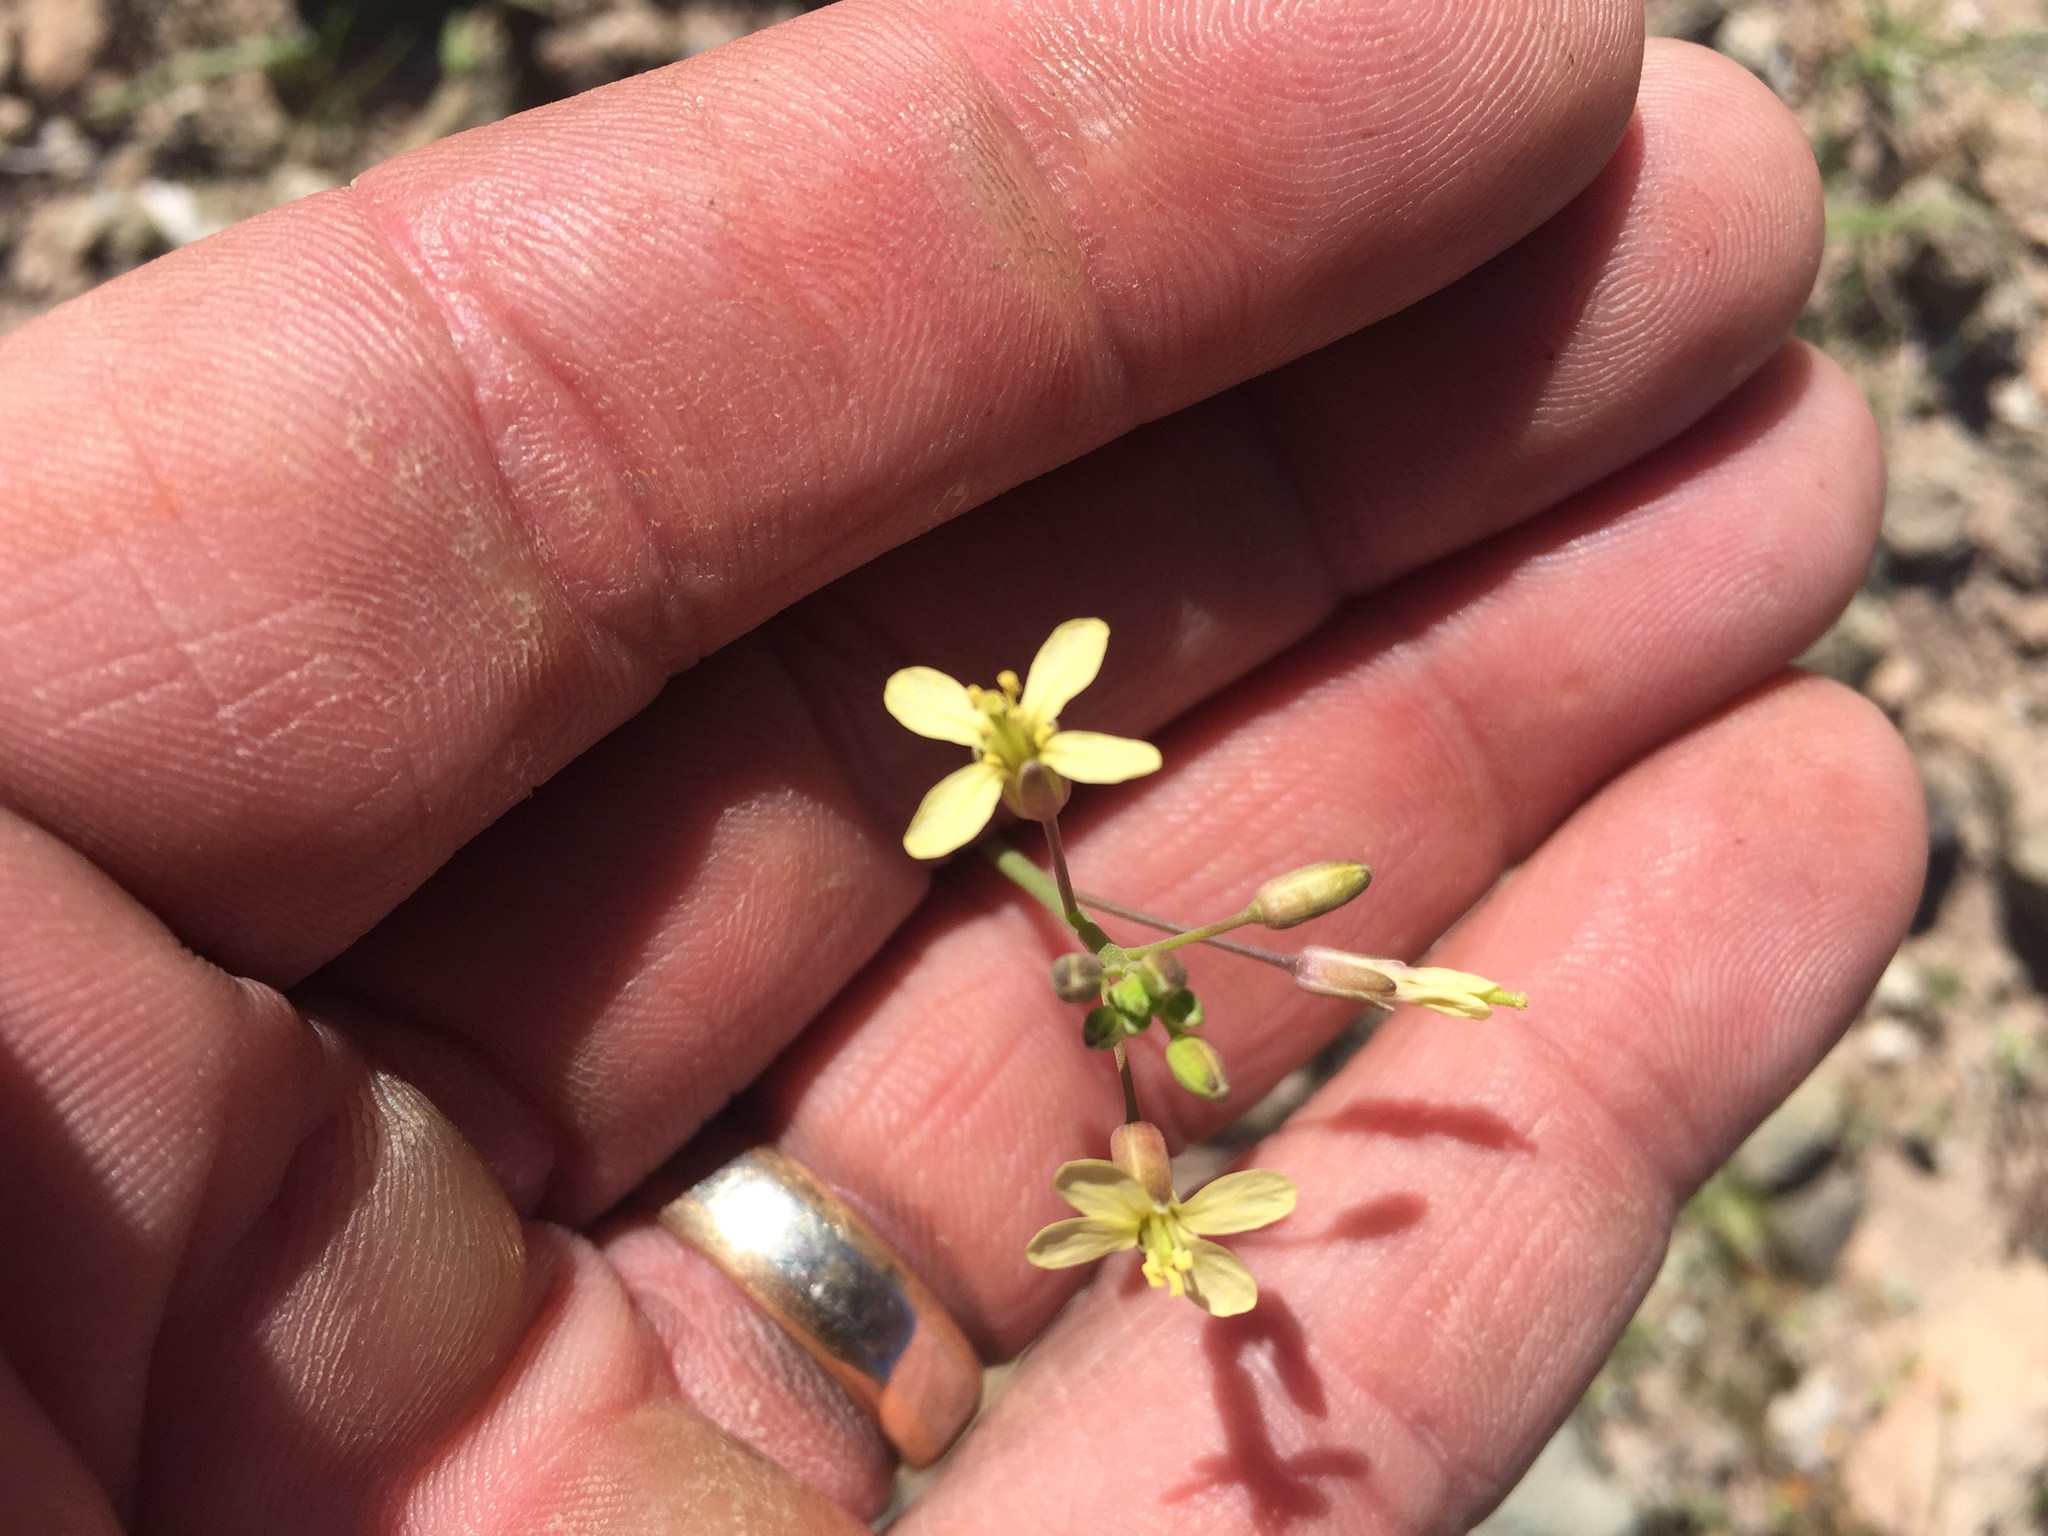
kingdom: Plantae
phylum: Tracheophyta
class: Magnoliopsida
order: Brassicales
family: Brassicaceae
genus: Brassica
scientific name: Brassica tournefortii
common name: Pale cabbage
